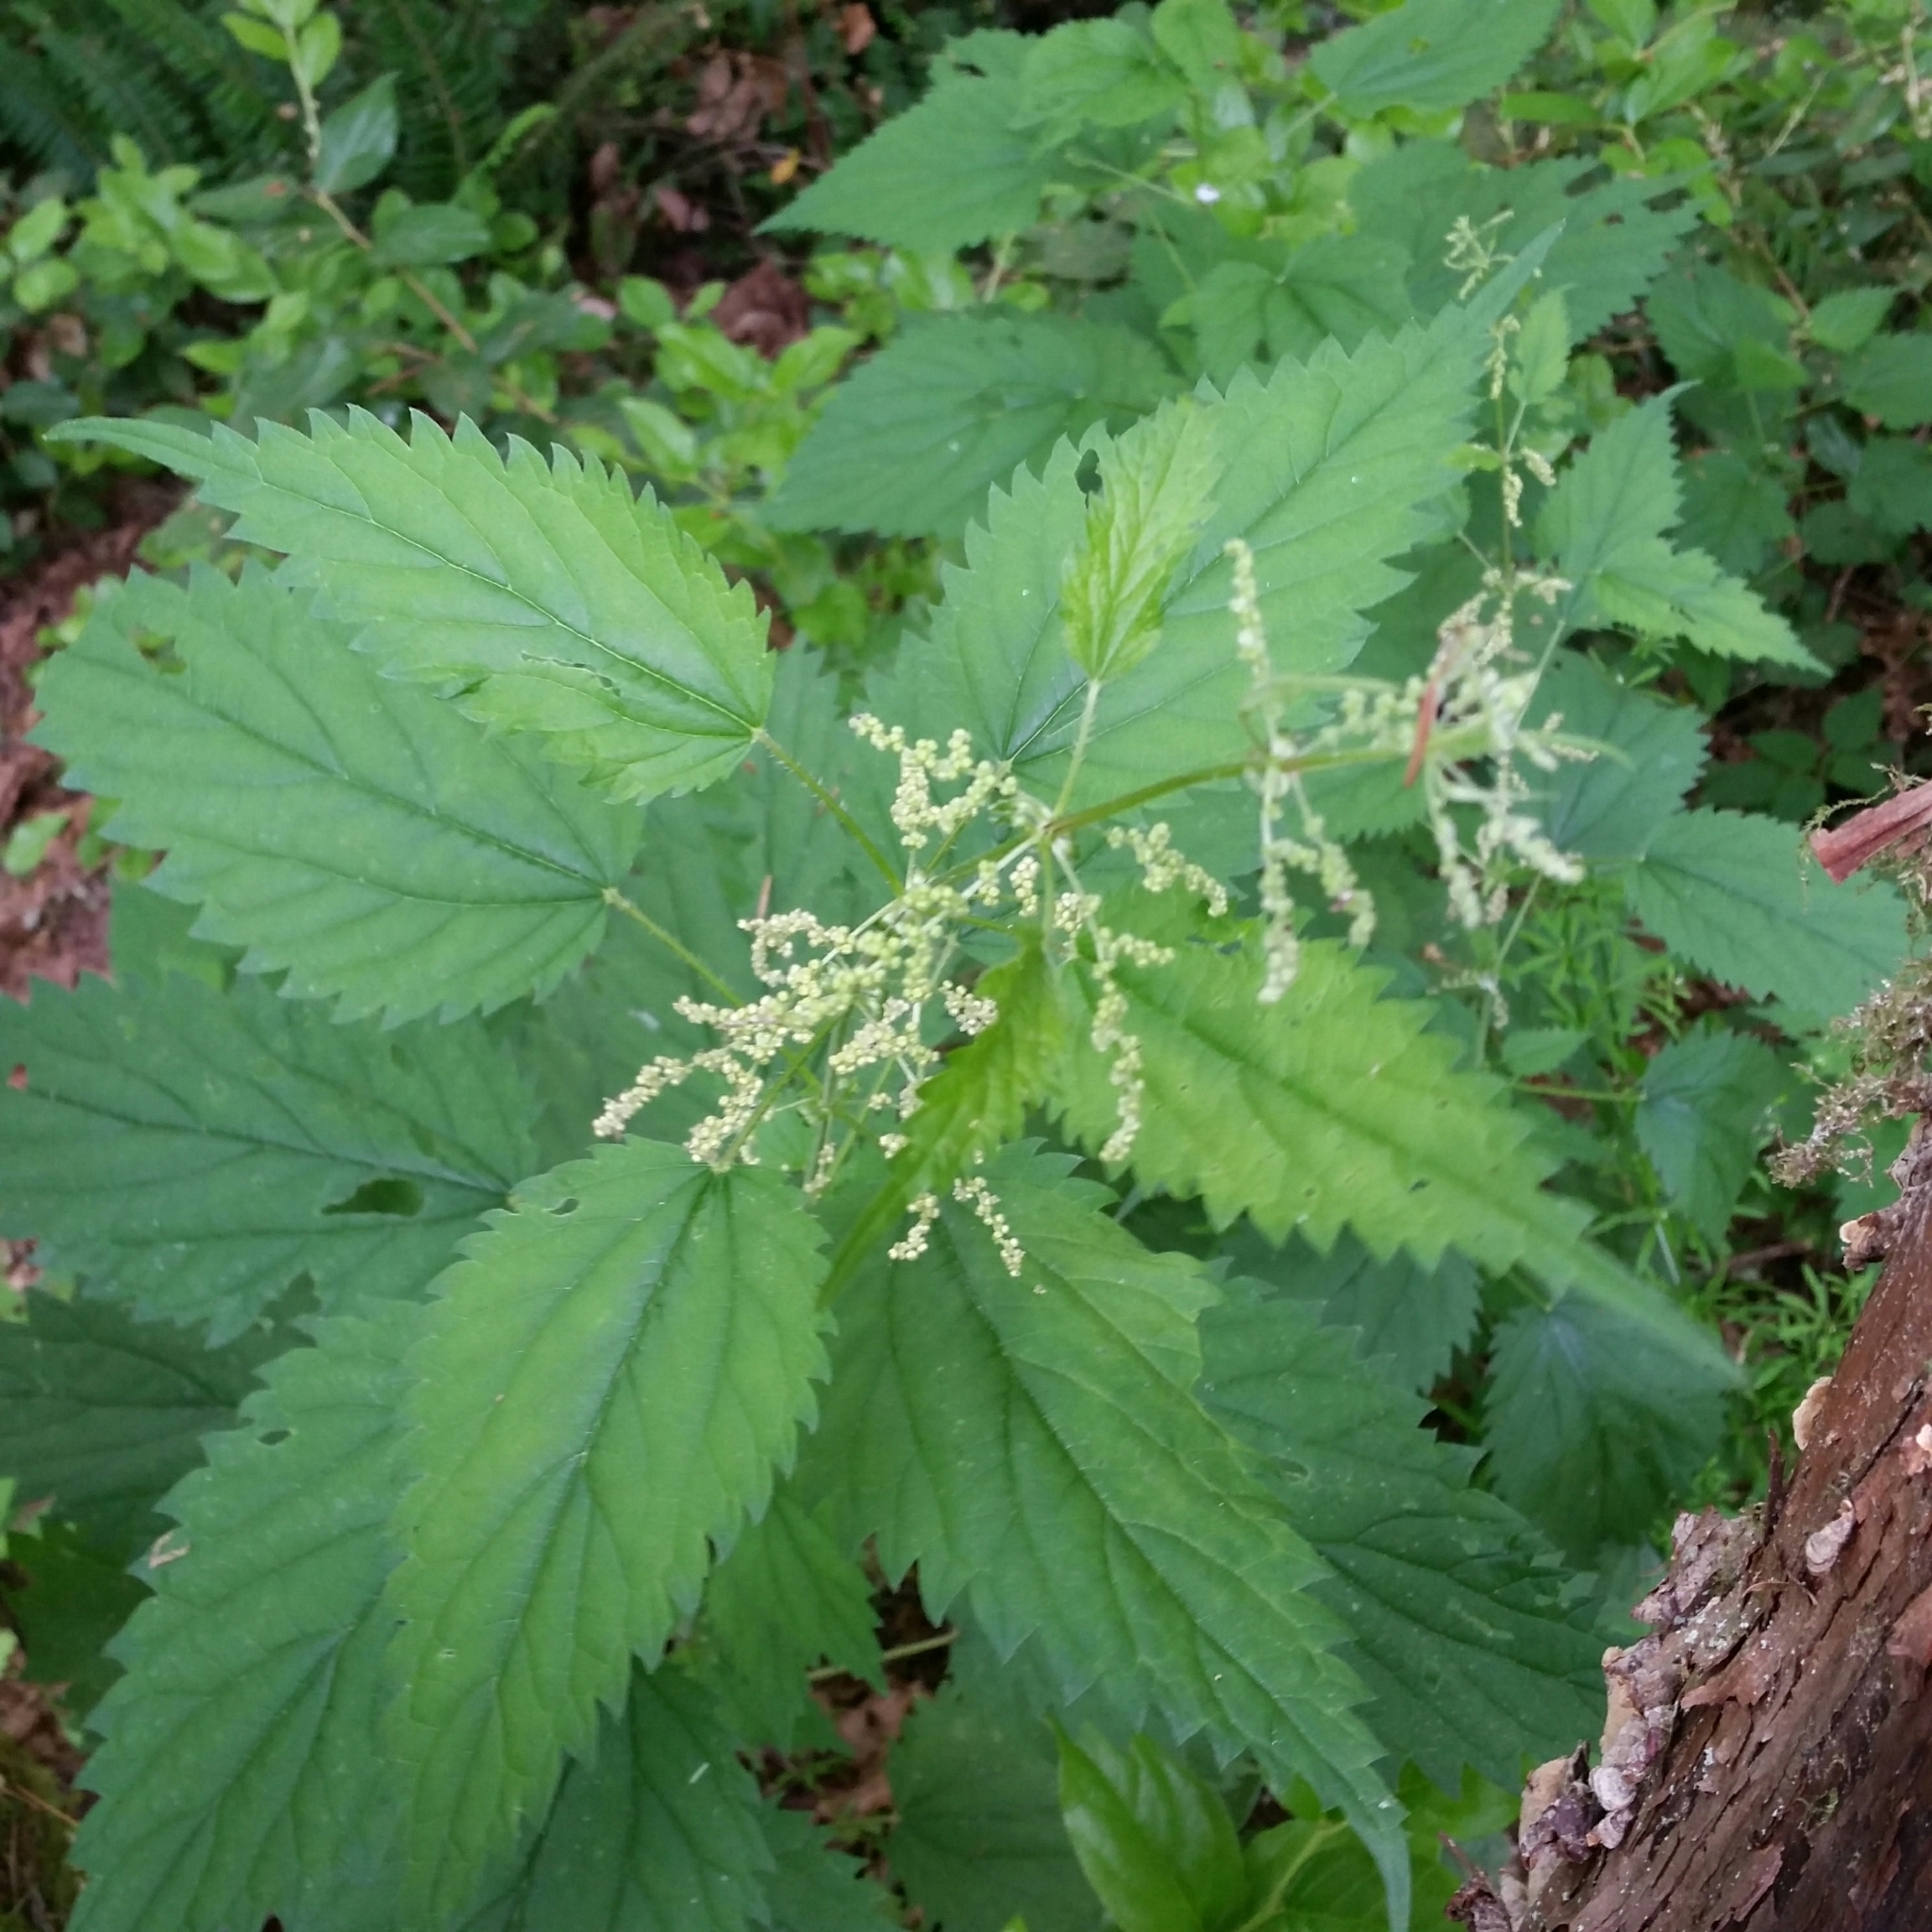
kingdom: Plantae
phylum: Tracheophyta
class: Magnoliopsida
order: Rosales
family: Urticaceae
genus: Urtica
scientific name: Urtica dioica
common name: Common nettle
